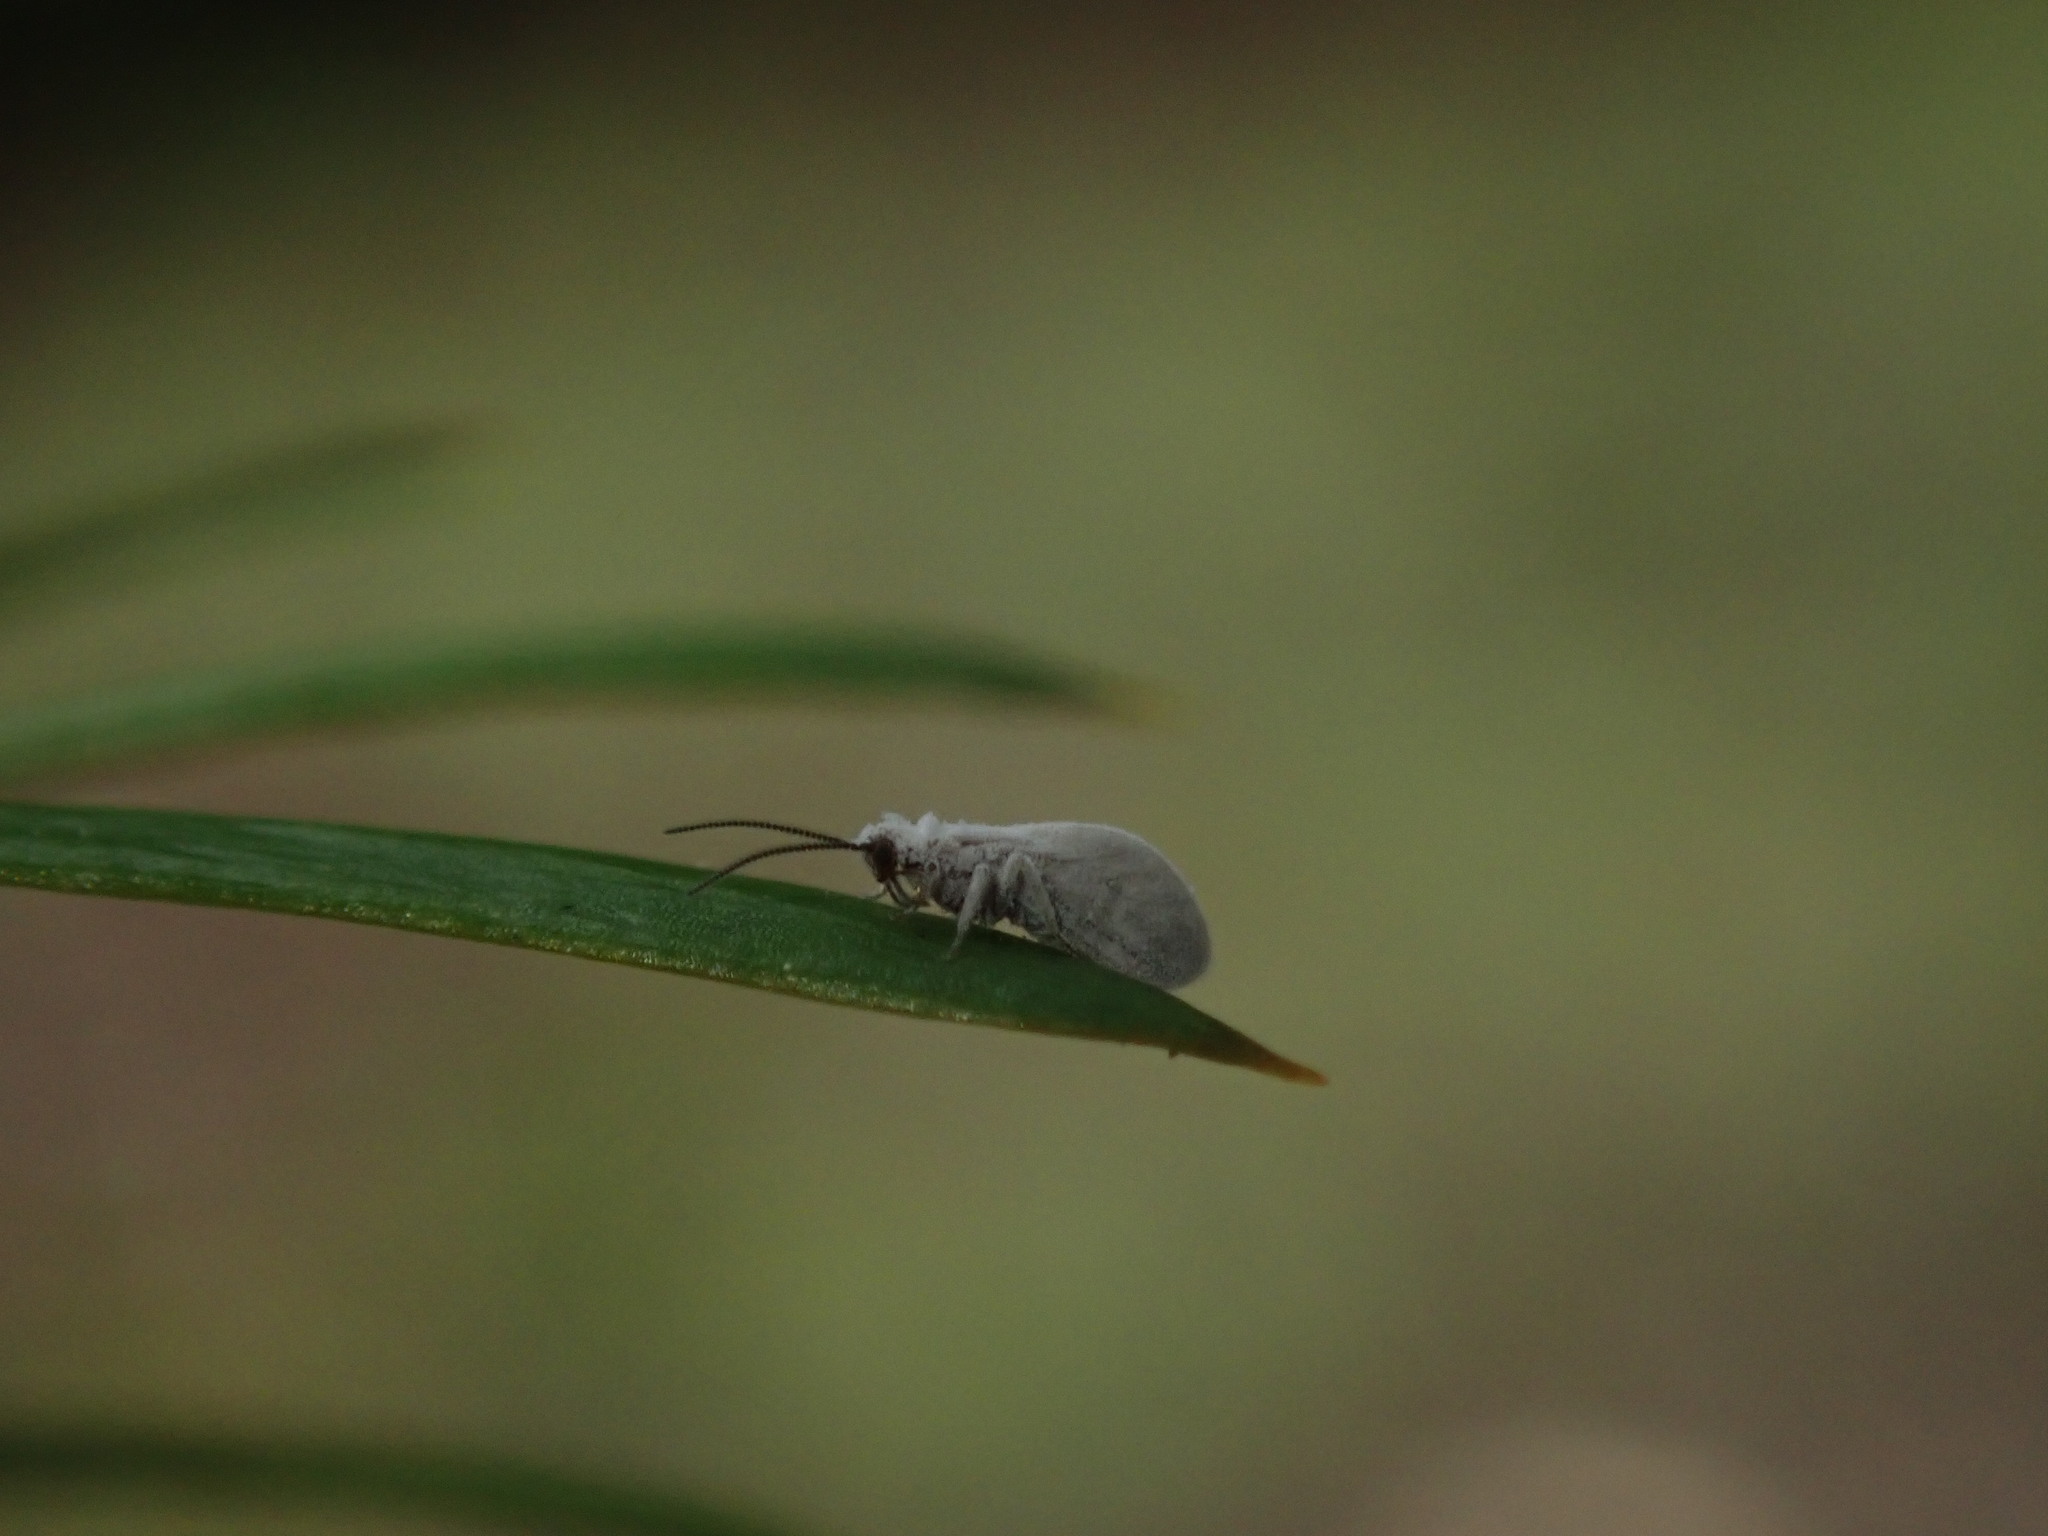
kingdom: Animalia
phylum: Arthropoda
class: Insecta
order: Neuroptera
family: Coniopterygidae
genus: Cryptoscenea
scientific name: Cryptoscenea australiensis
